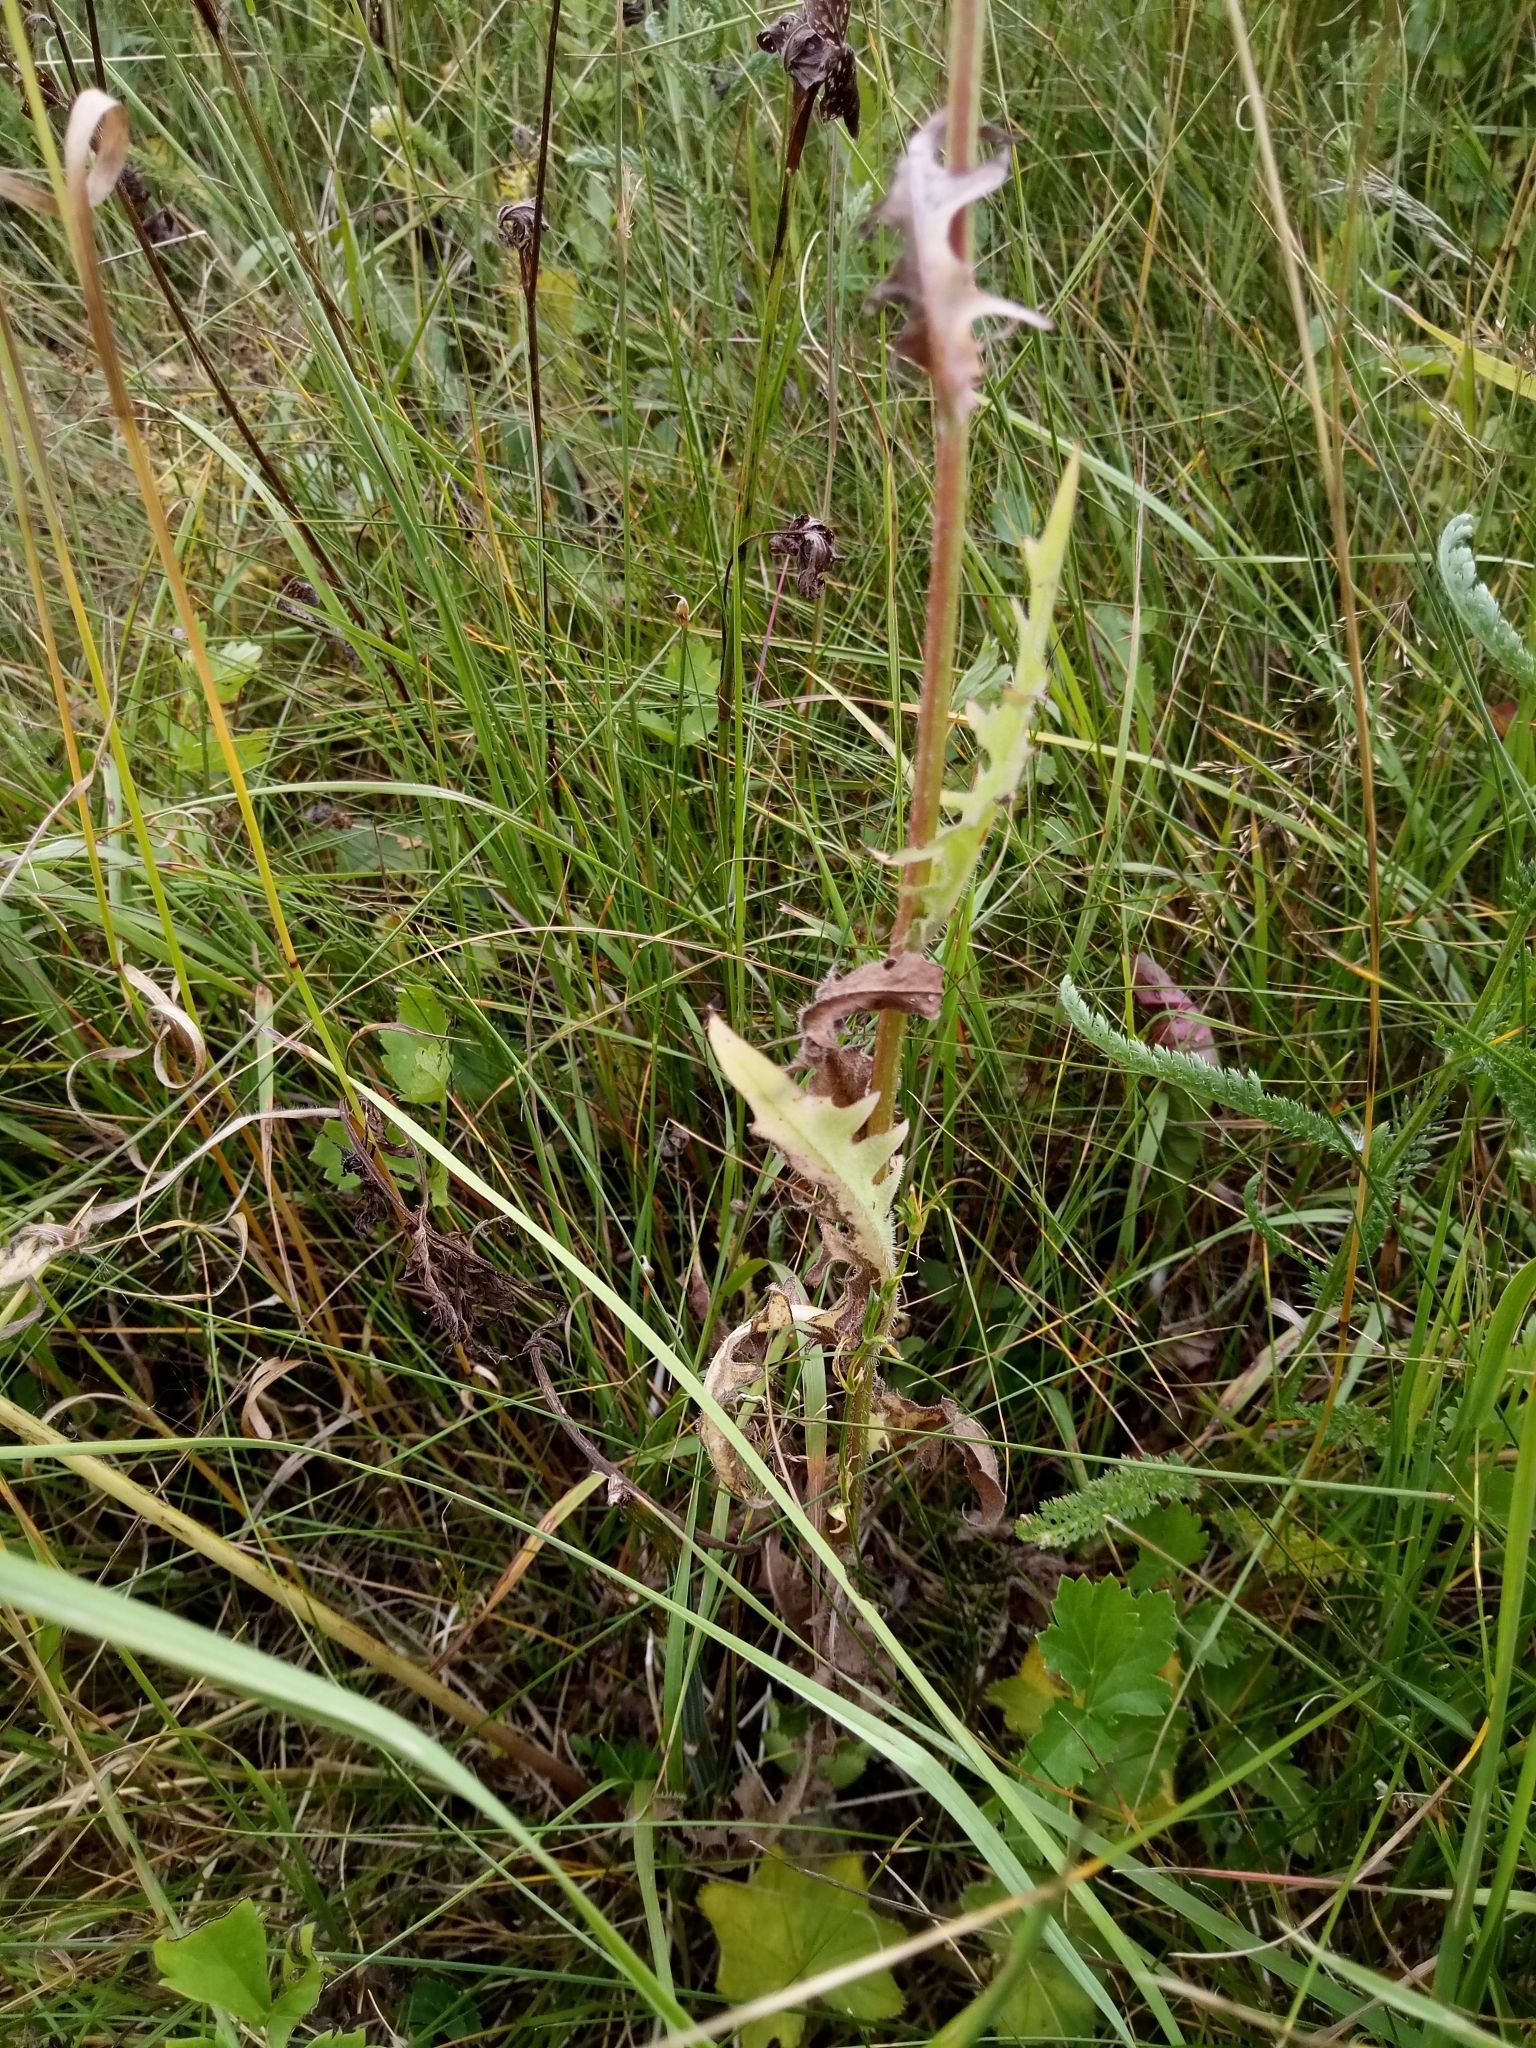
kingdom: Plantae
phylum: Tracheophyta
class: Magnoliopsida
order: Asterales
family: Asteraceae
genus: Crepis
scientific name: Crepis biennis
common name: Rough hawk's-beard
